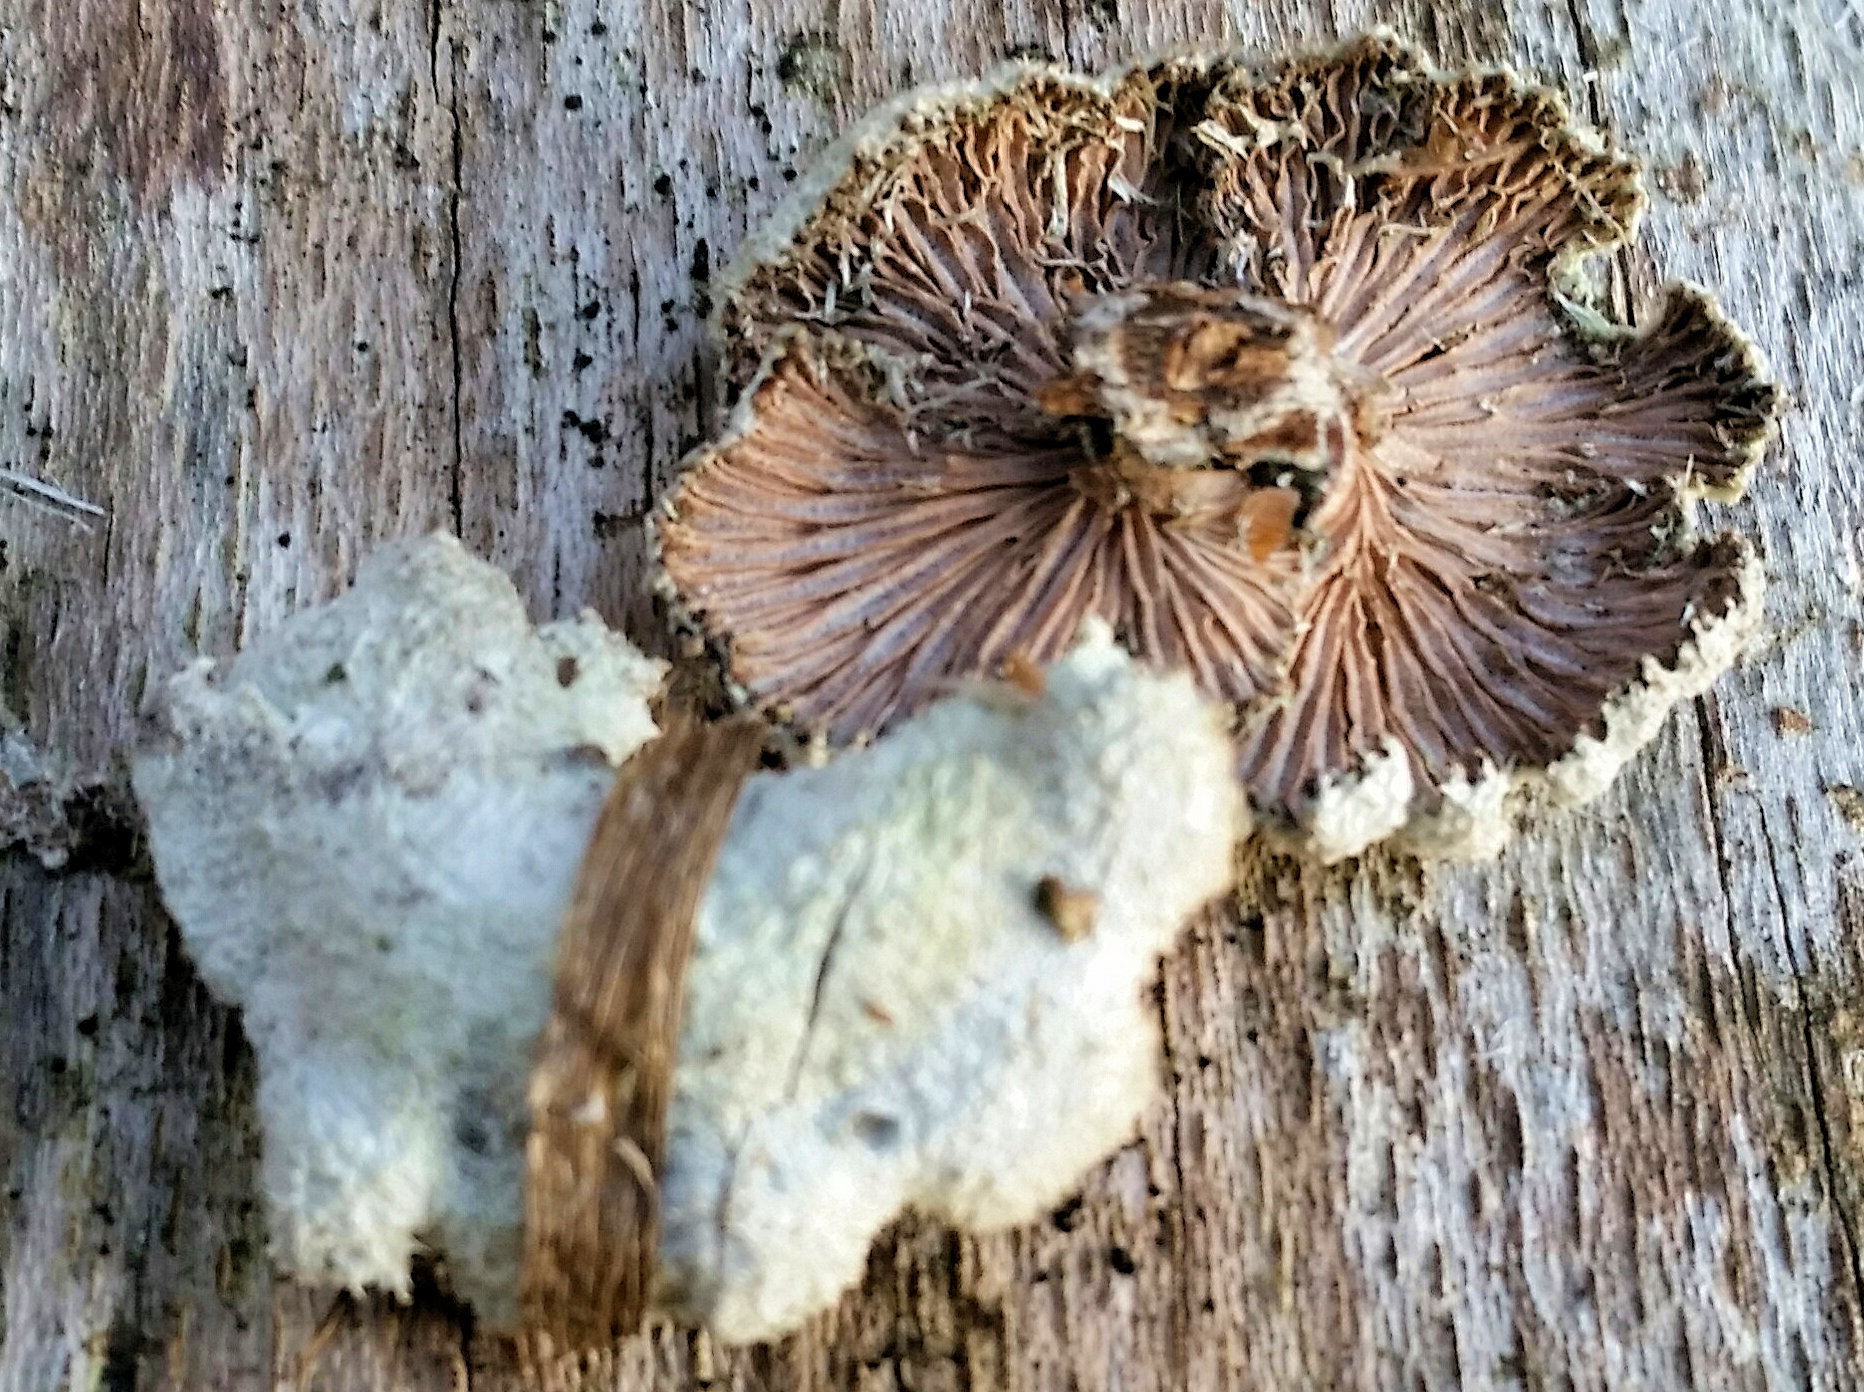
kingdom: Fungi
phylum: Basidiomycota
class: Agaricomycetes
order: Agaricales
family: Schizophyllaceae
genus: Schizophyllum
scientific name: Schizophyllum commune
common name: Common porecrust
